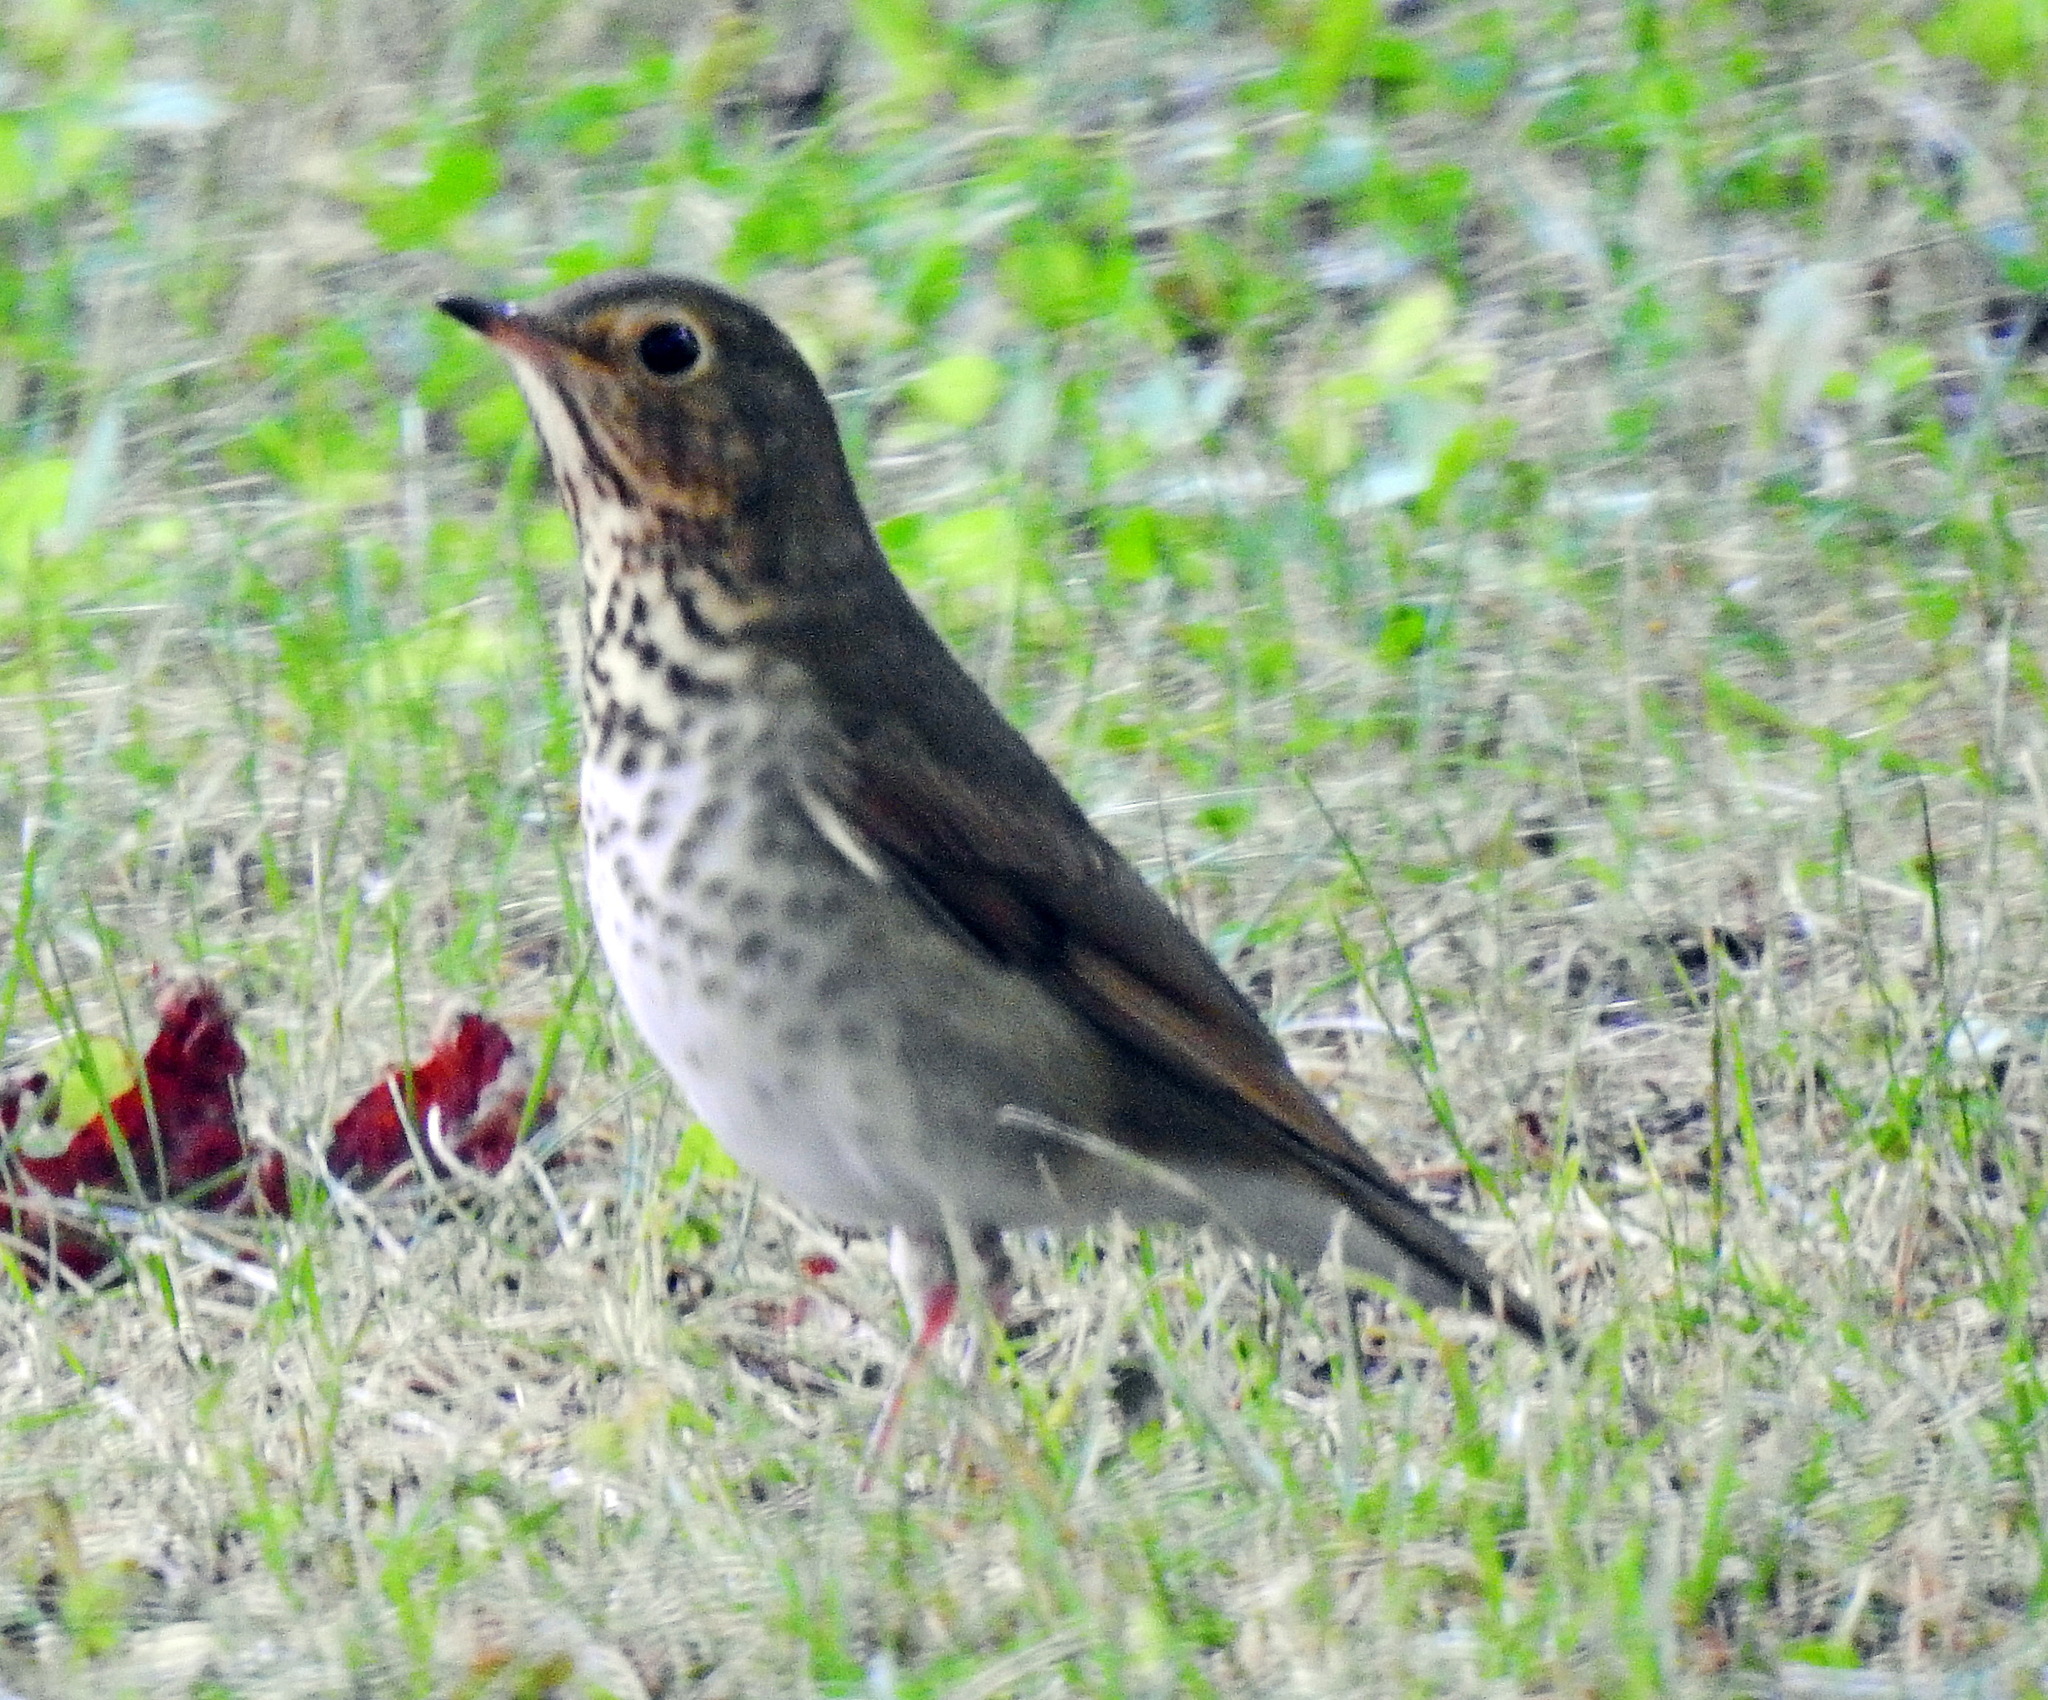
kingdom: Animalia
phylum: Chordata
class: Aves
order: Passeriformes
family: Turdidae
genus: Catharus
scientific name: Catharus ustulatus
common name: Swainson's thrush
